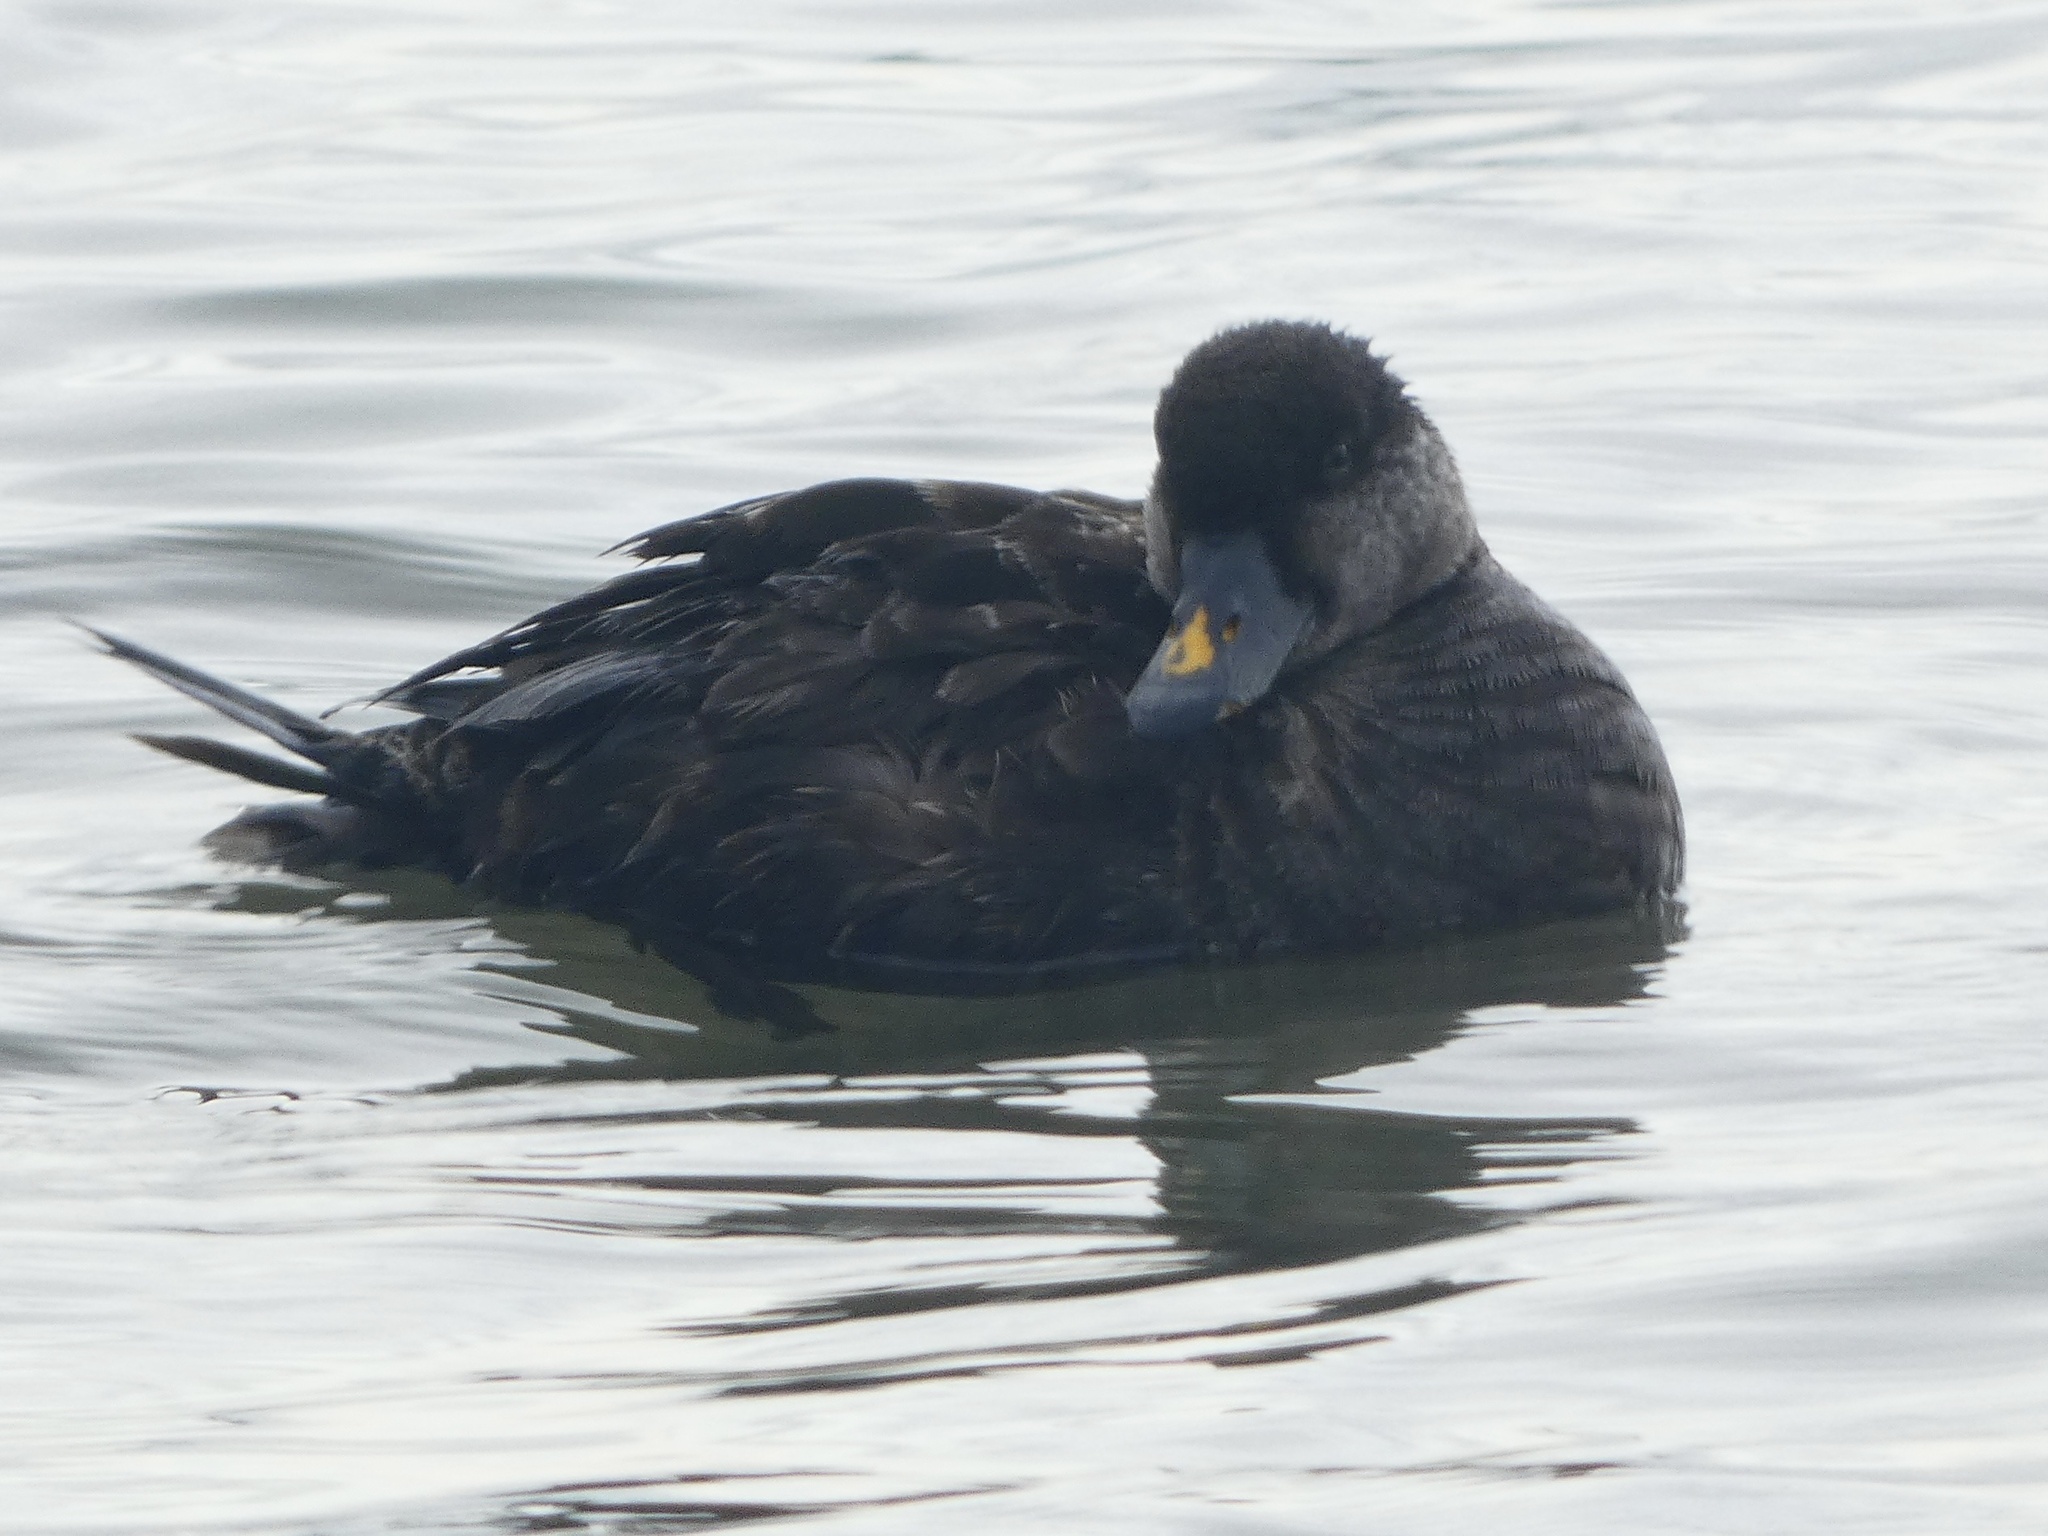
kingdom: Animalia
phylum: Chordata
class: Aves
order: Anseriformes
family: Anatidae
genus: Melanitta
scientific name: Melanitta nigra
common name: Common scoter
